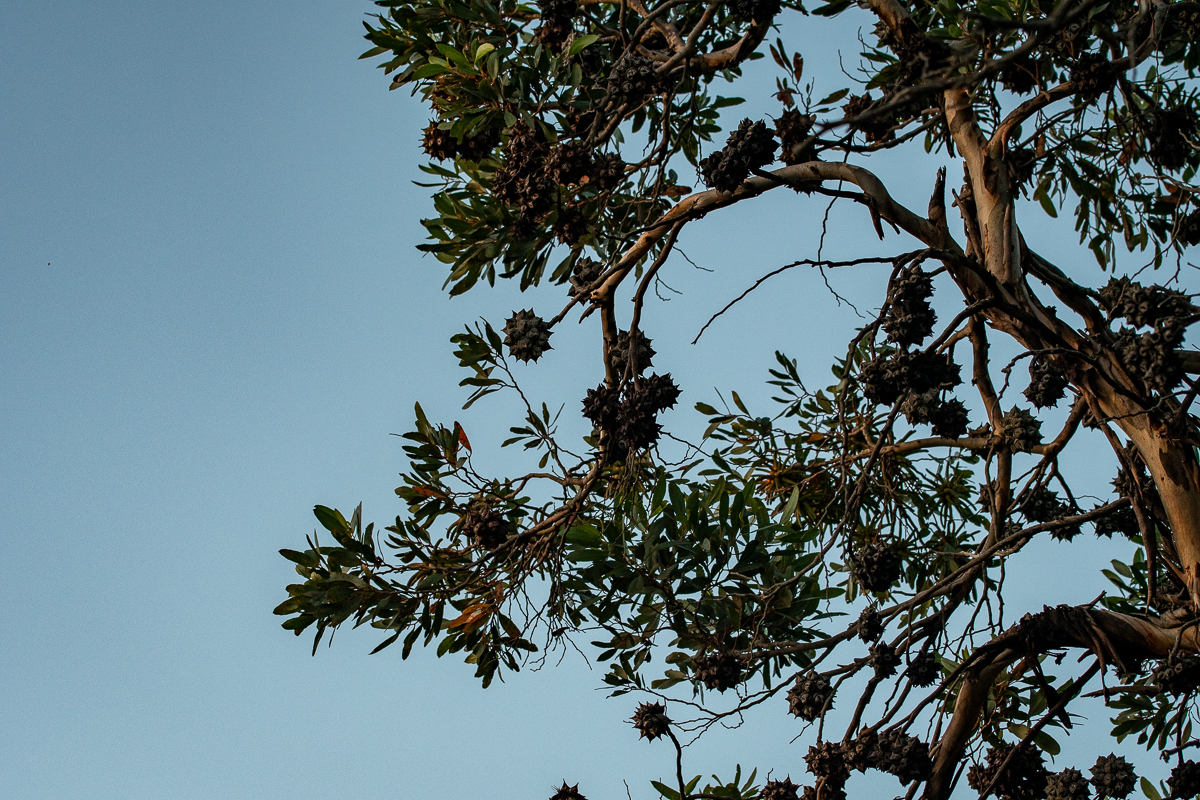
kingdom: Plantae
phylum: Tracheophyta
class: Magnoliopsida
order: Myrtales
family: Myrtaceae
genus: Eucalyptus
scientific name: Eucalyptus conferruminata
